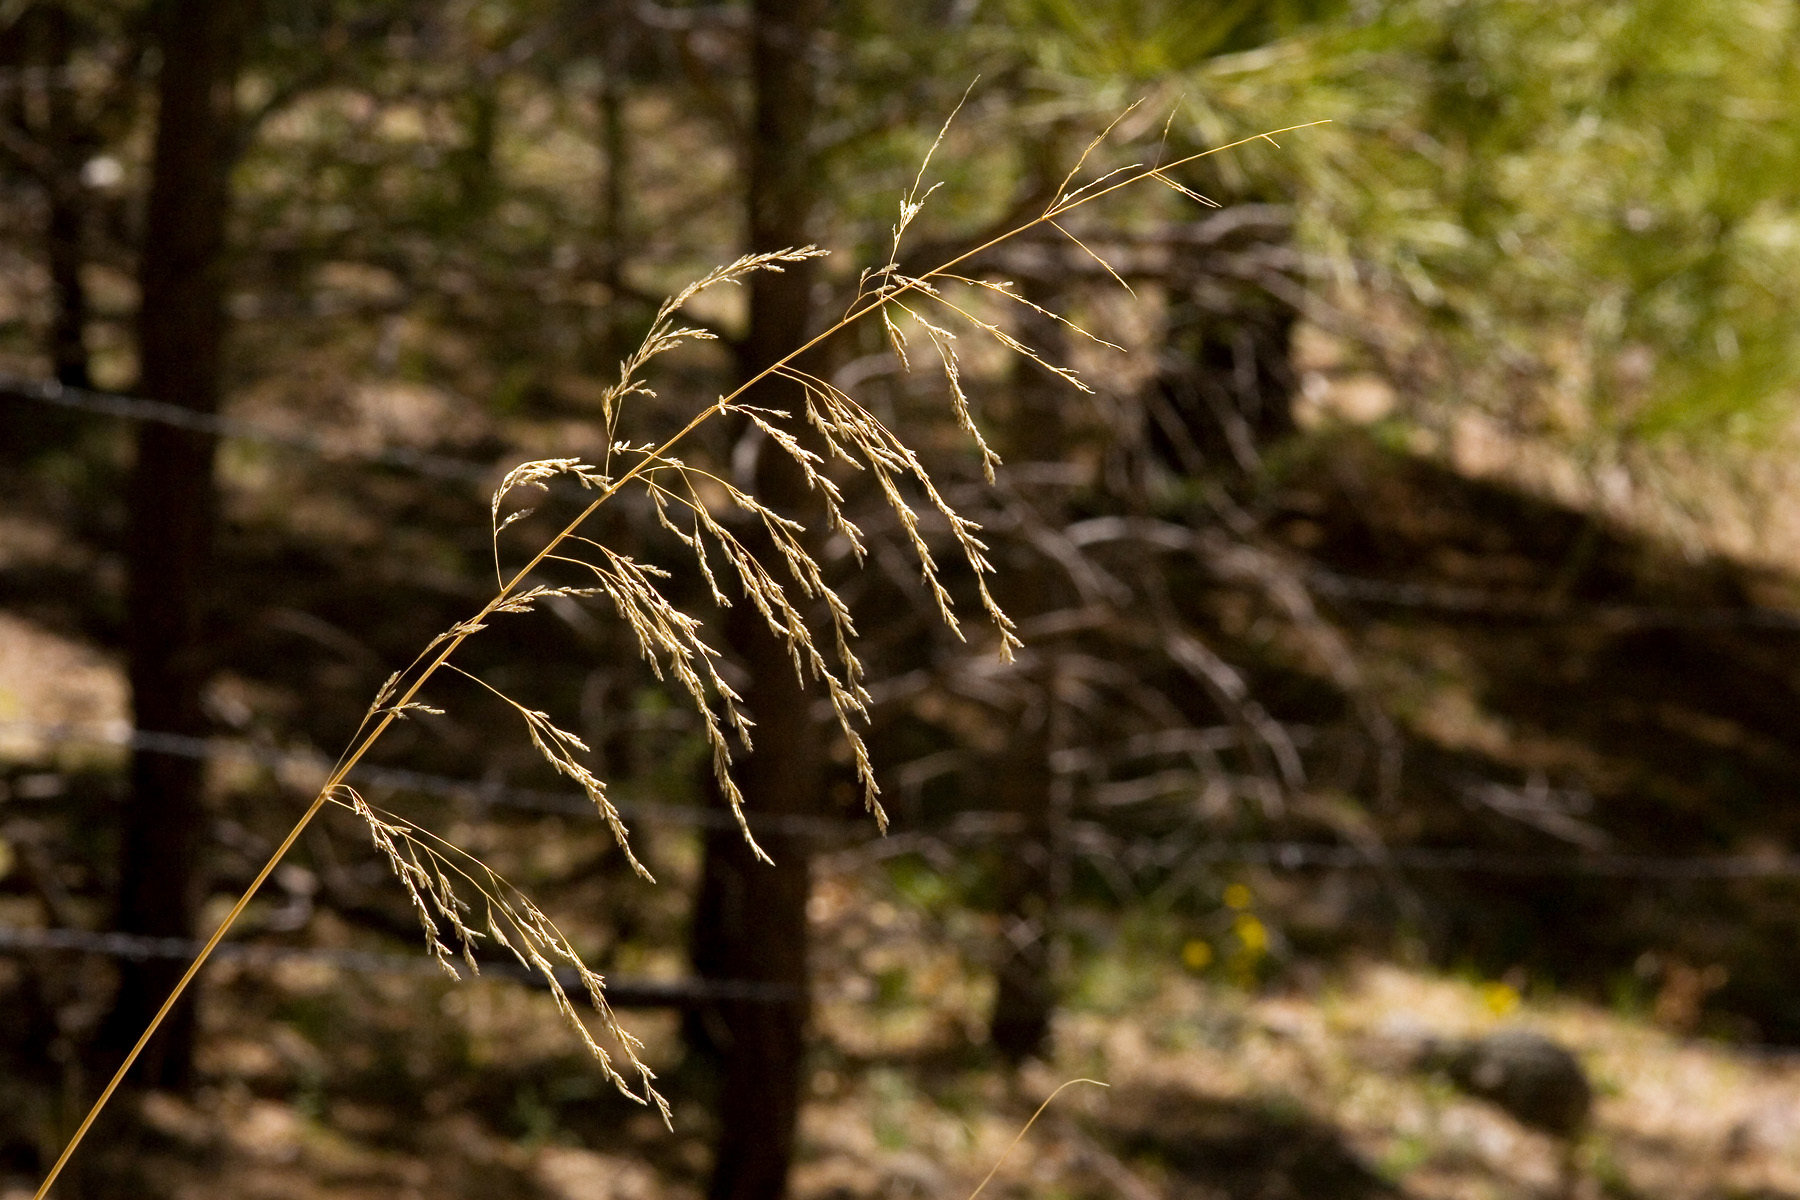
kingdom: Plantae
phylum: Tracheophyta
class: Liliopsida
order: Poales
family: Poaceae
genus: Eragrostis
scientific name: Eragrostis curvula
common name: African love-grass
